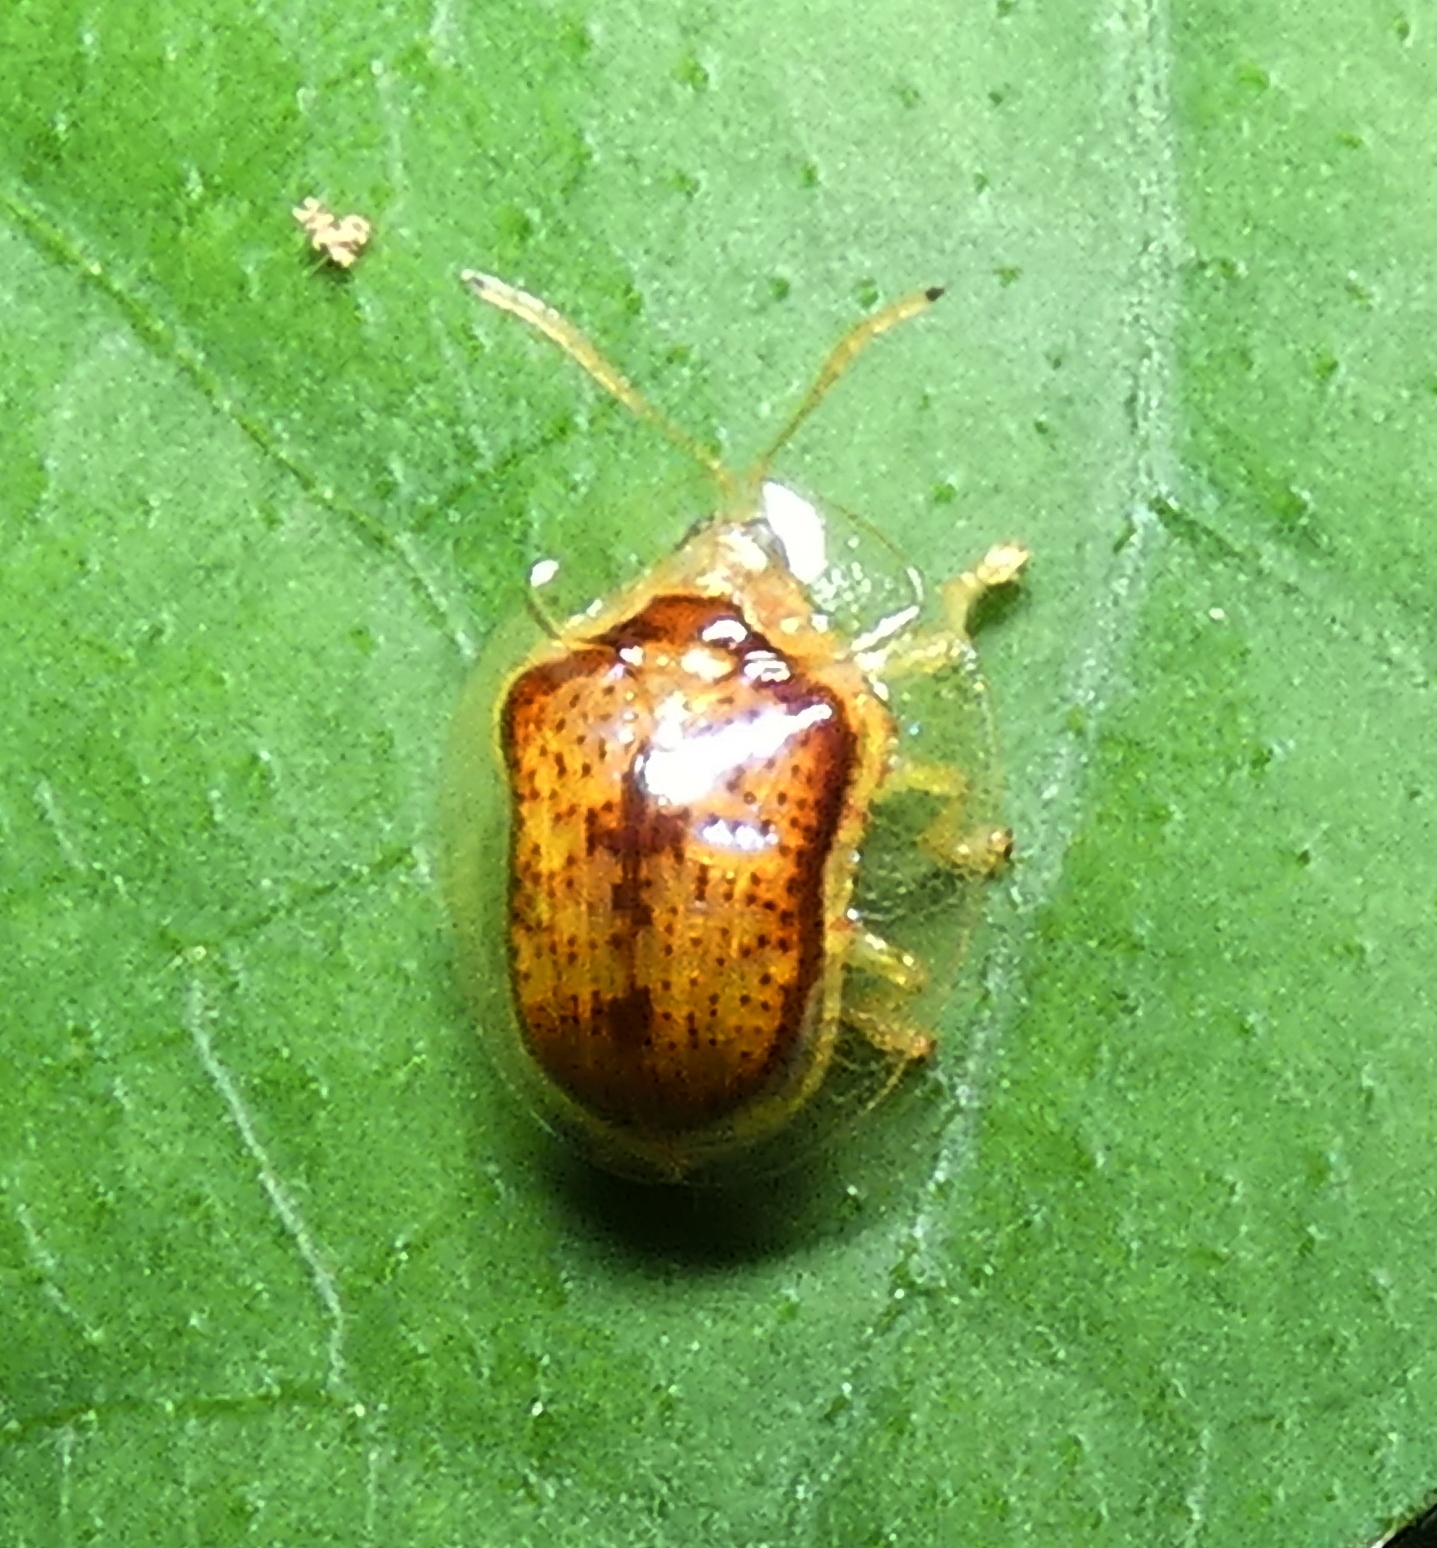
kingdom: Animalia
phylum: Arthropoda
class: Insecta
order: Coleoptera
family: Chrysomelidae
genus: Microctenochira
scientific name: Microctenochira quadrata
